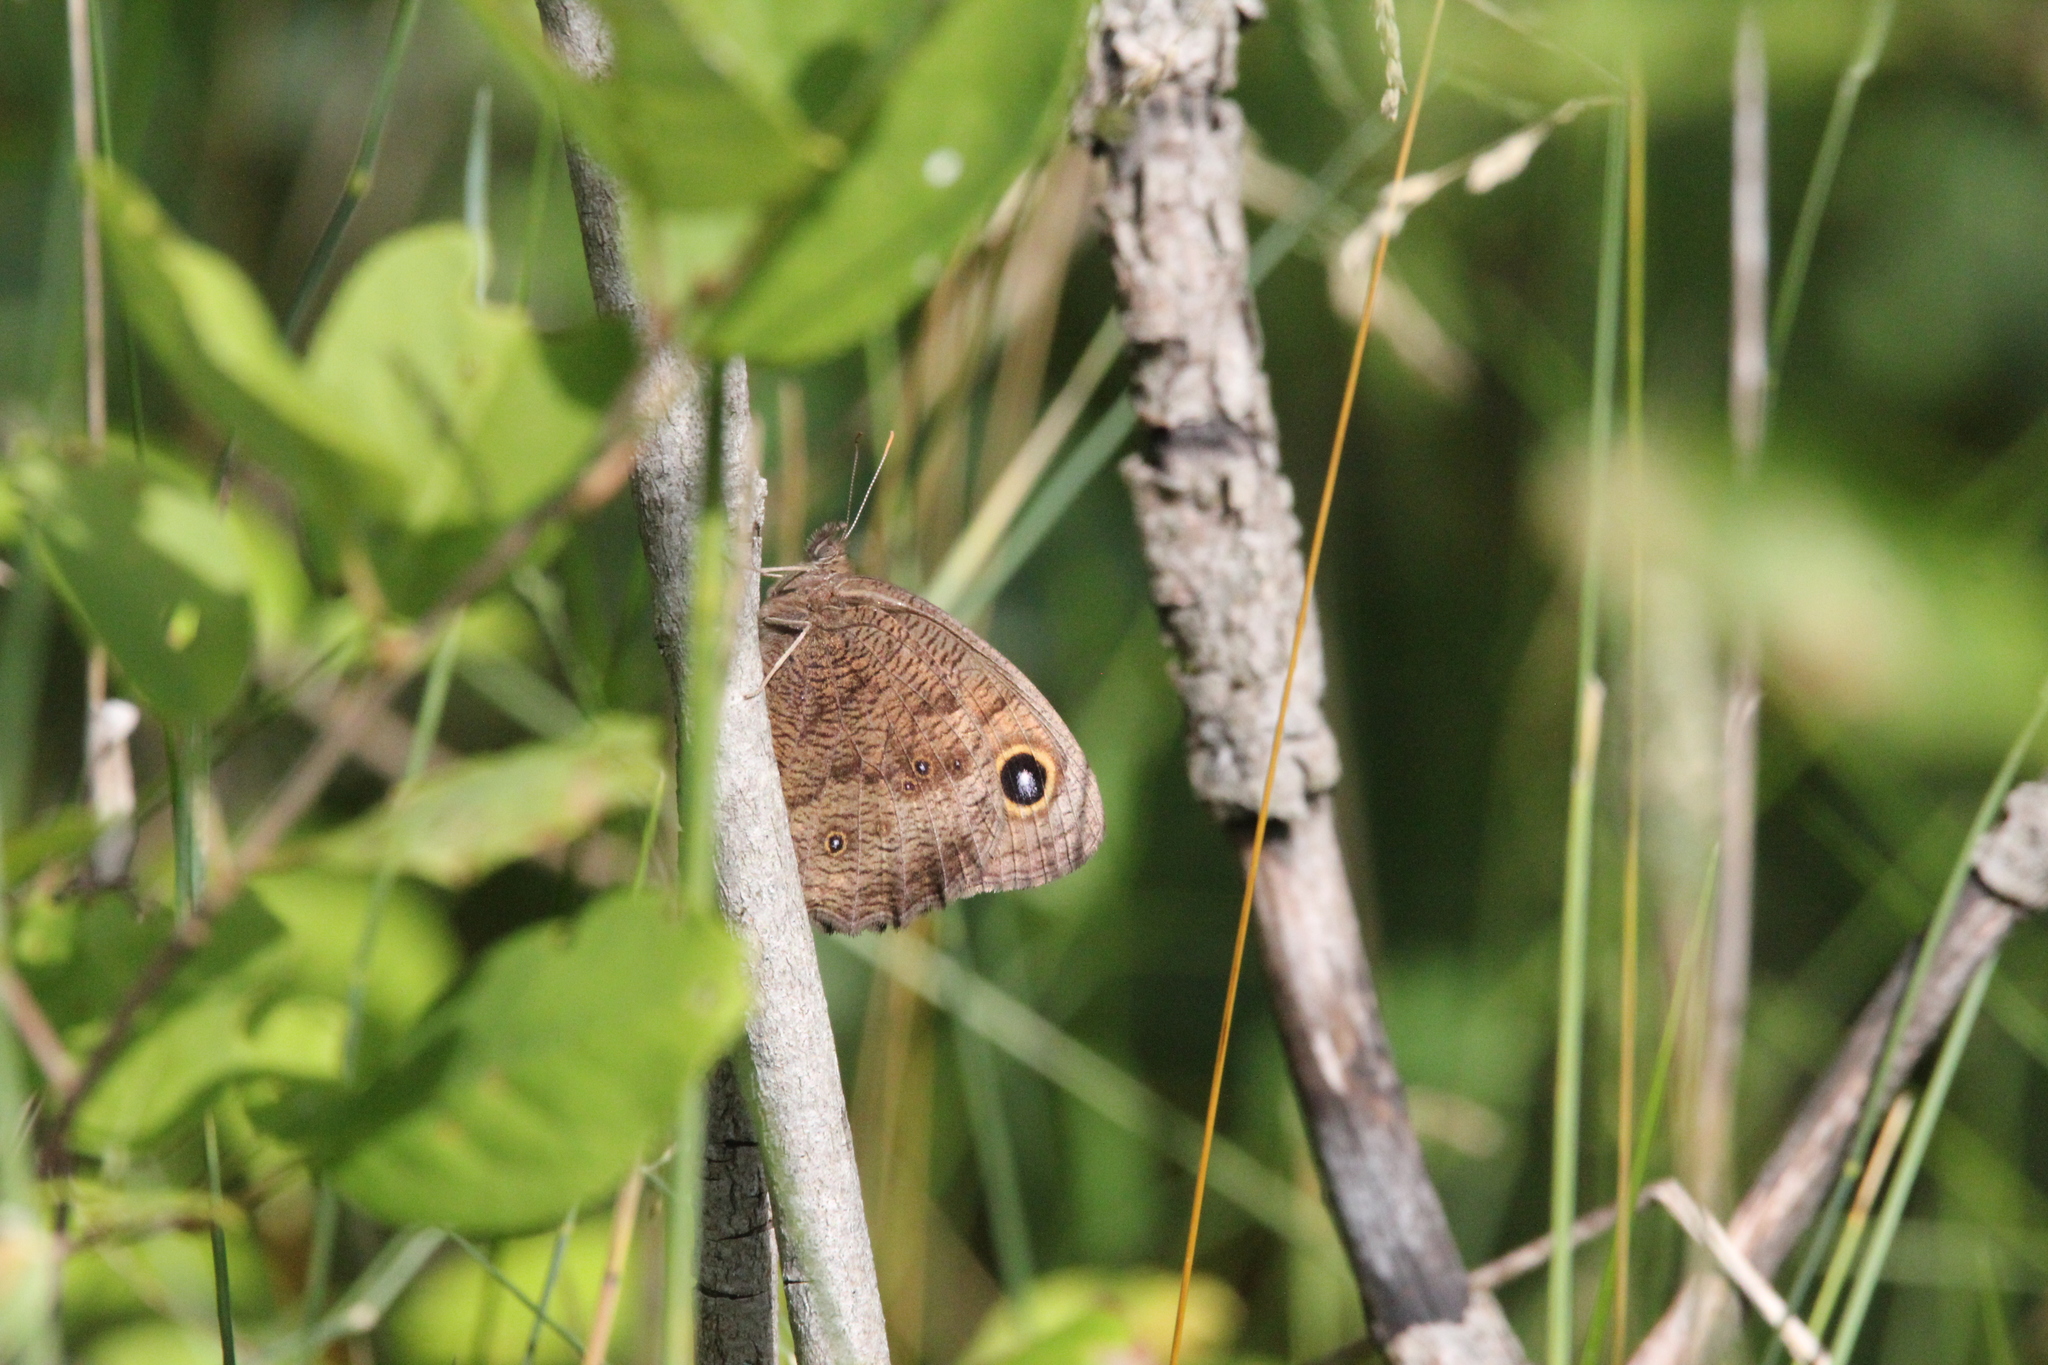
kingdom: Animalia
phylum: Arthropoda
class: Insecta
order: Lepidoptera
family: Nymphalidae
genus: Cercyonis
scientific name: Cercyonis pegala
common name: Common wood-nymph
